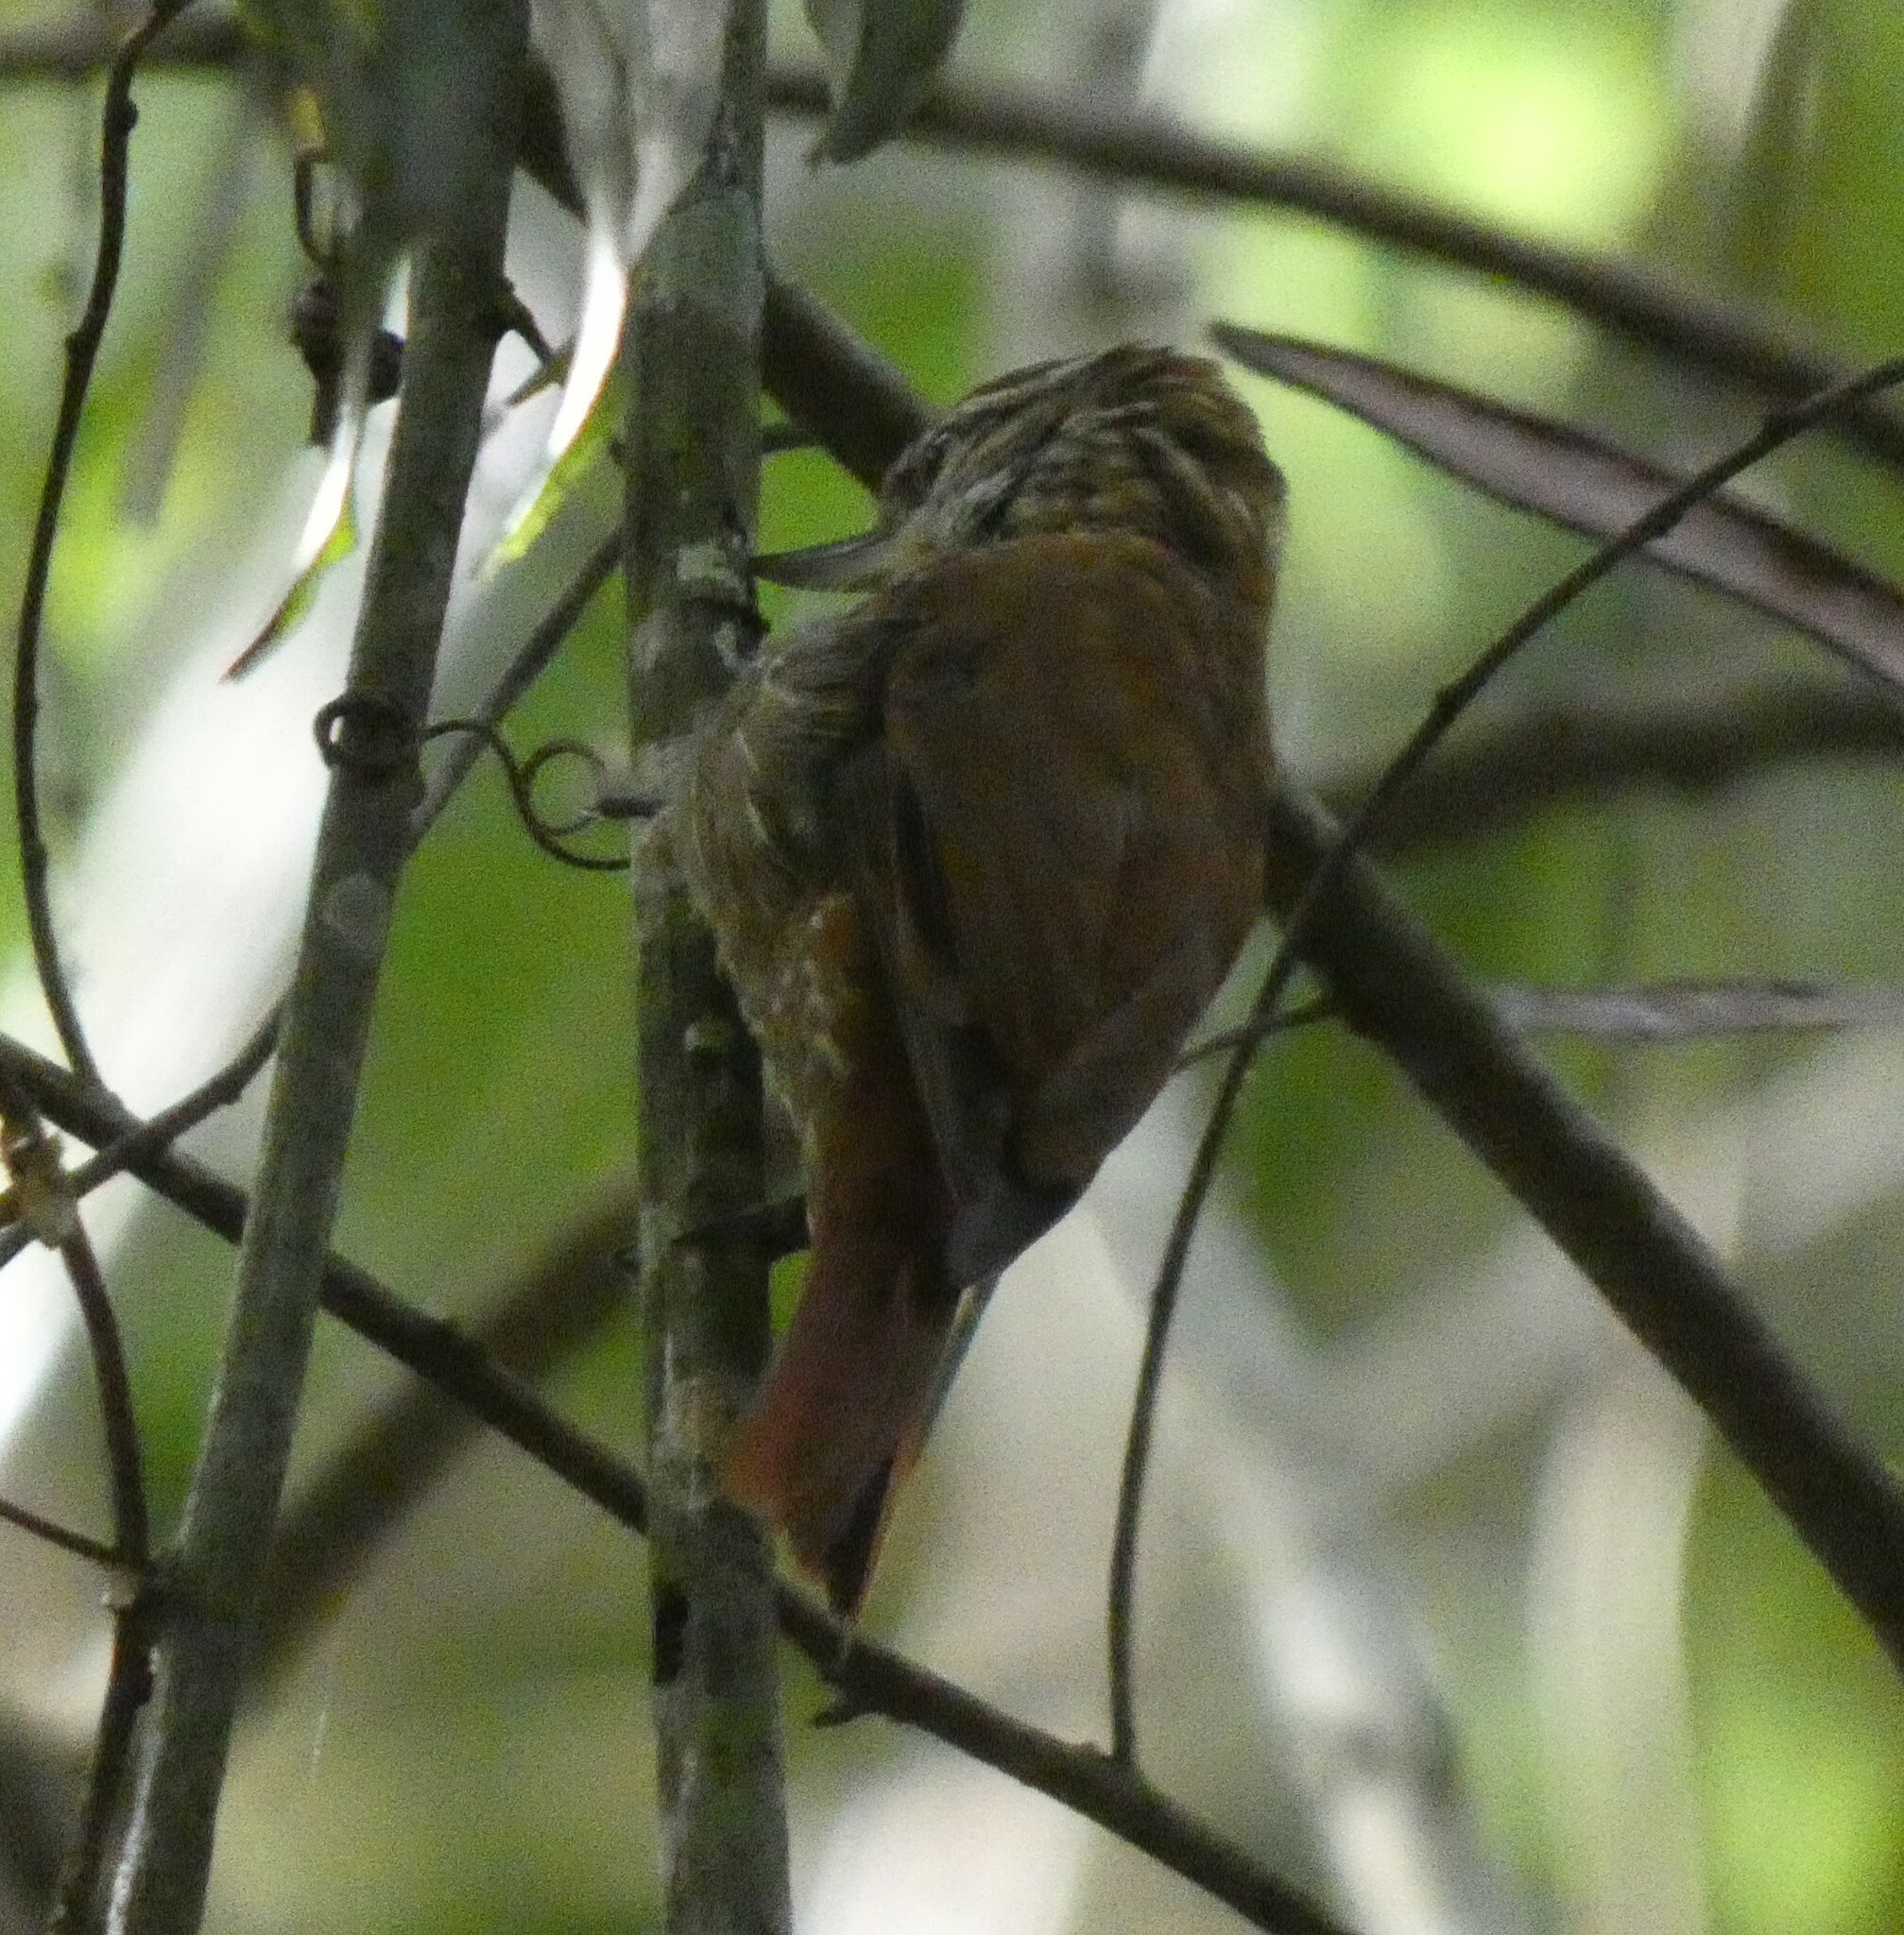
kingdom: Animalia
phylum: Chordata
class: Aves
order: Passeriformes
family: Furnariidae
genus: Xenops
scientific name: Xenops rutilans
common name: Streaked xenops
